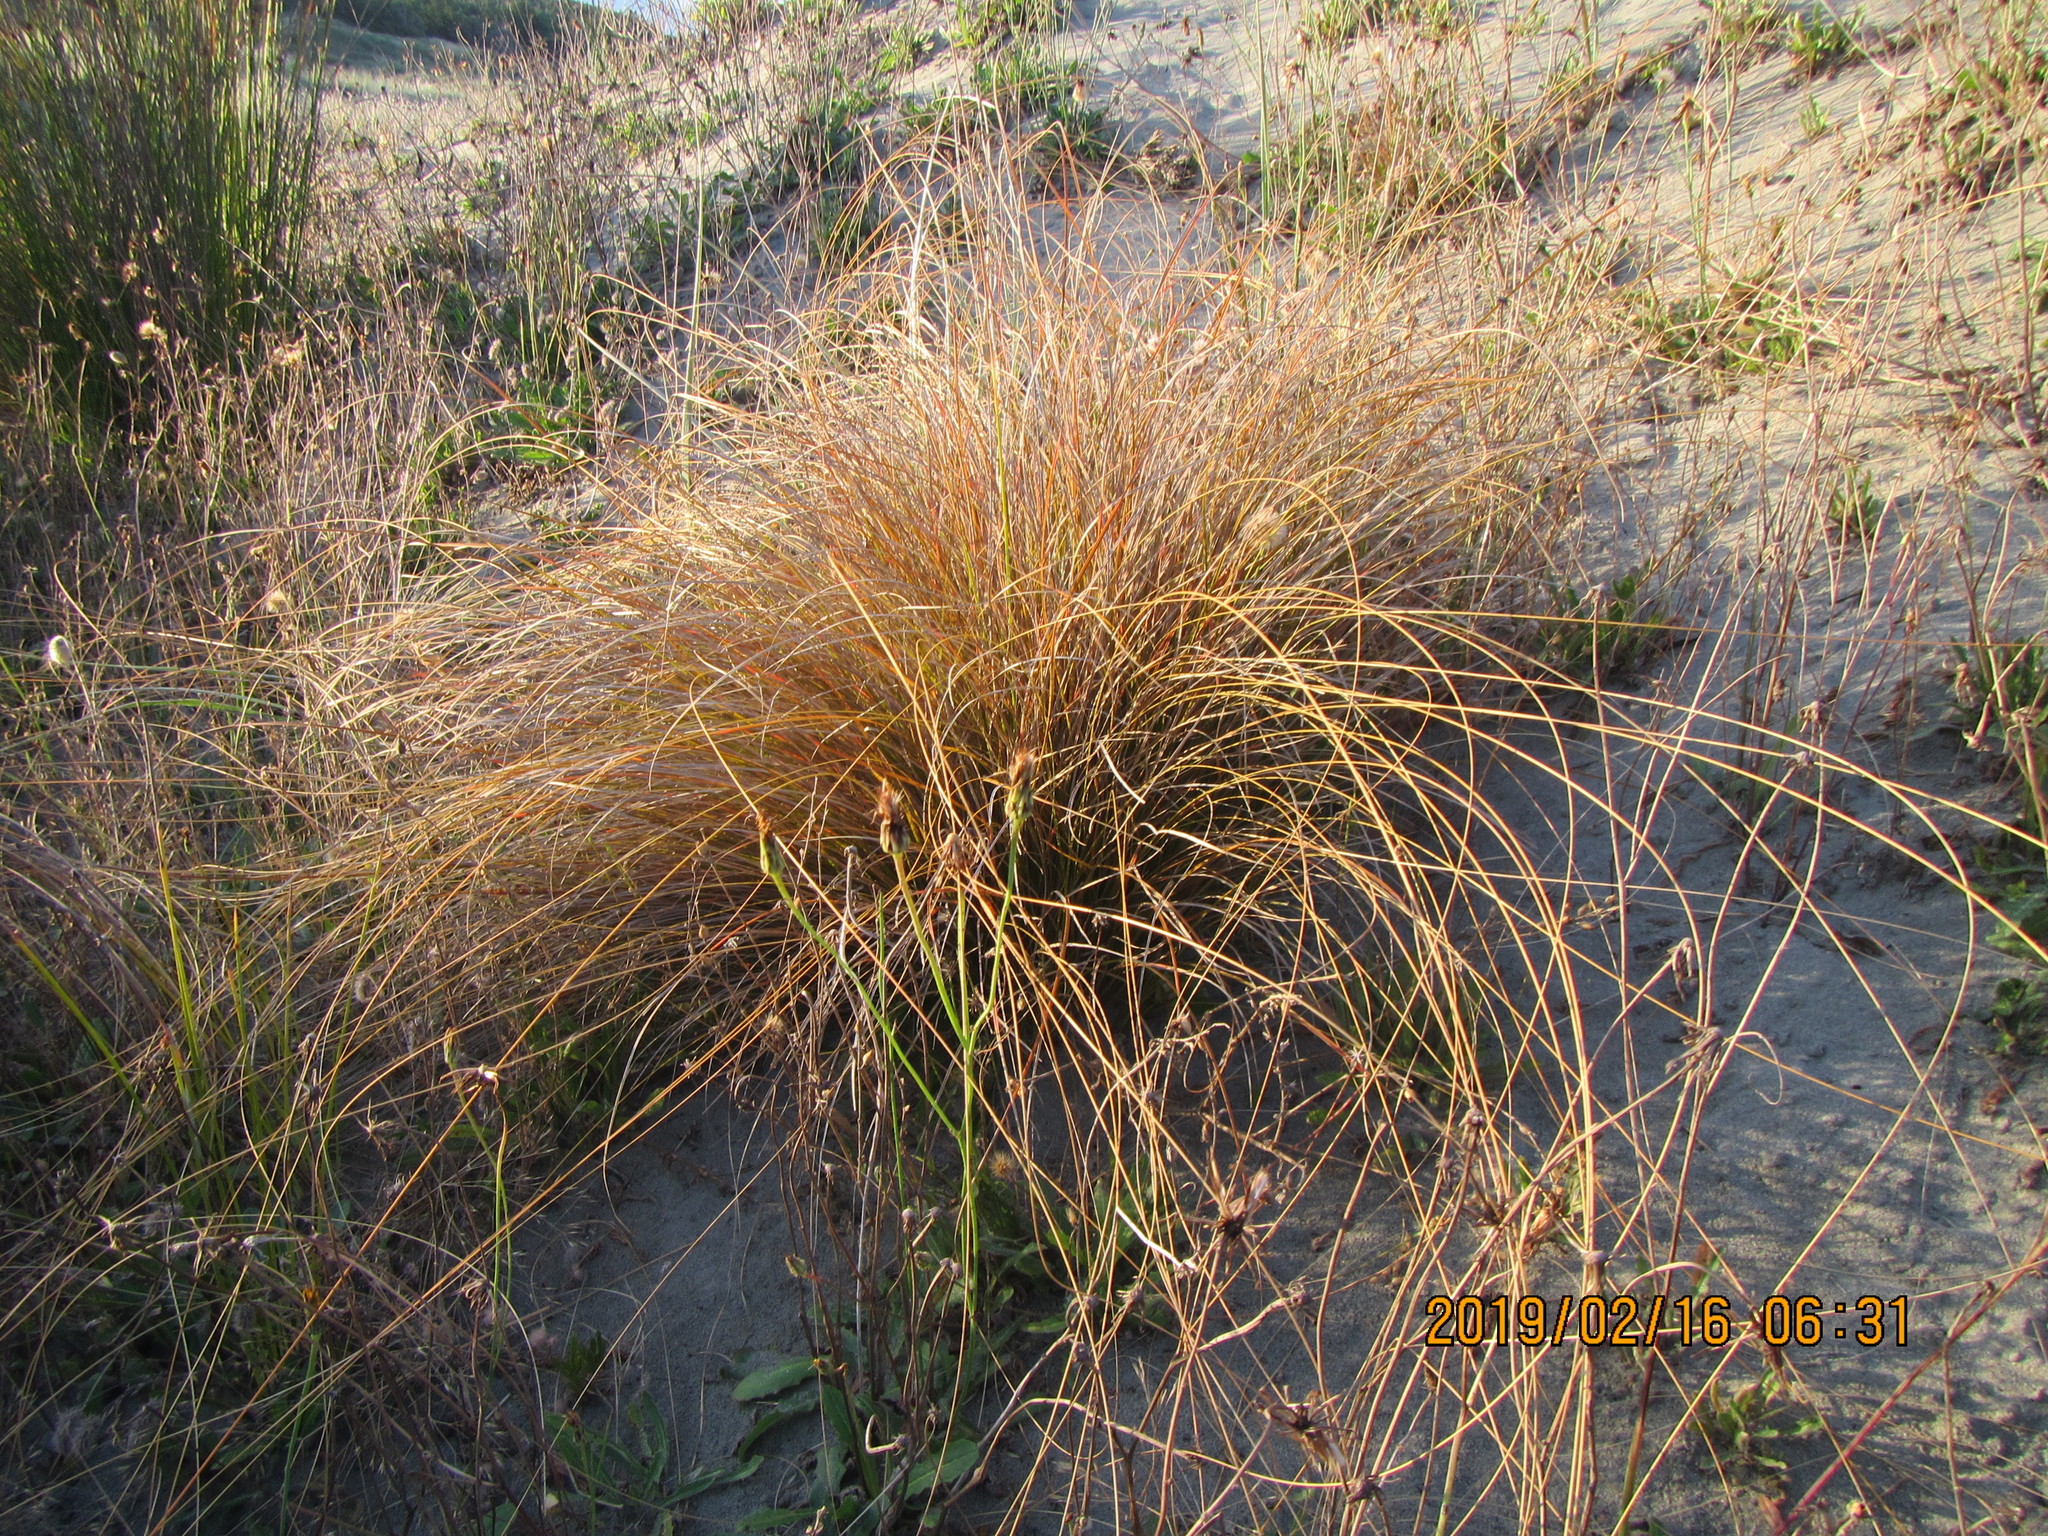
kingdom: Plantae
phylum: Tracheophyta
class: Liliopsida
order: Poales
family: Cyperaceae
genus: Carex
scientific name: Carex testacea
